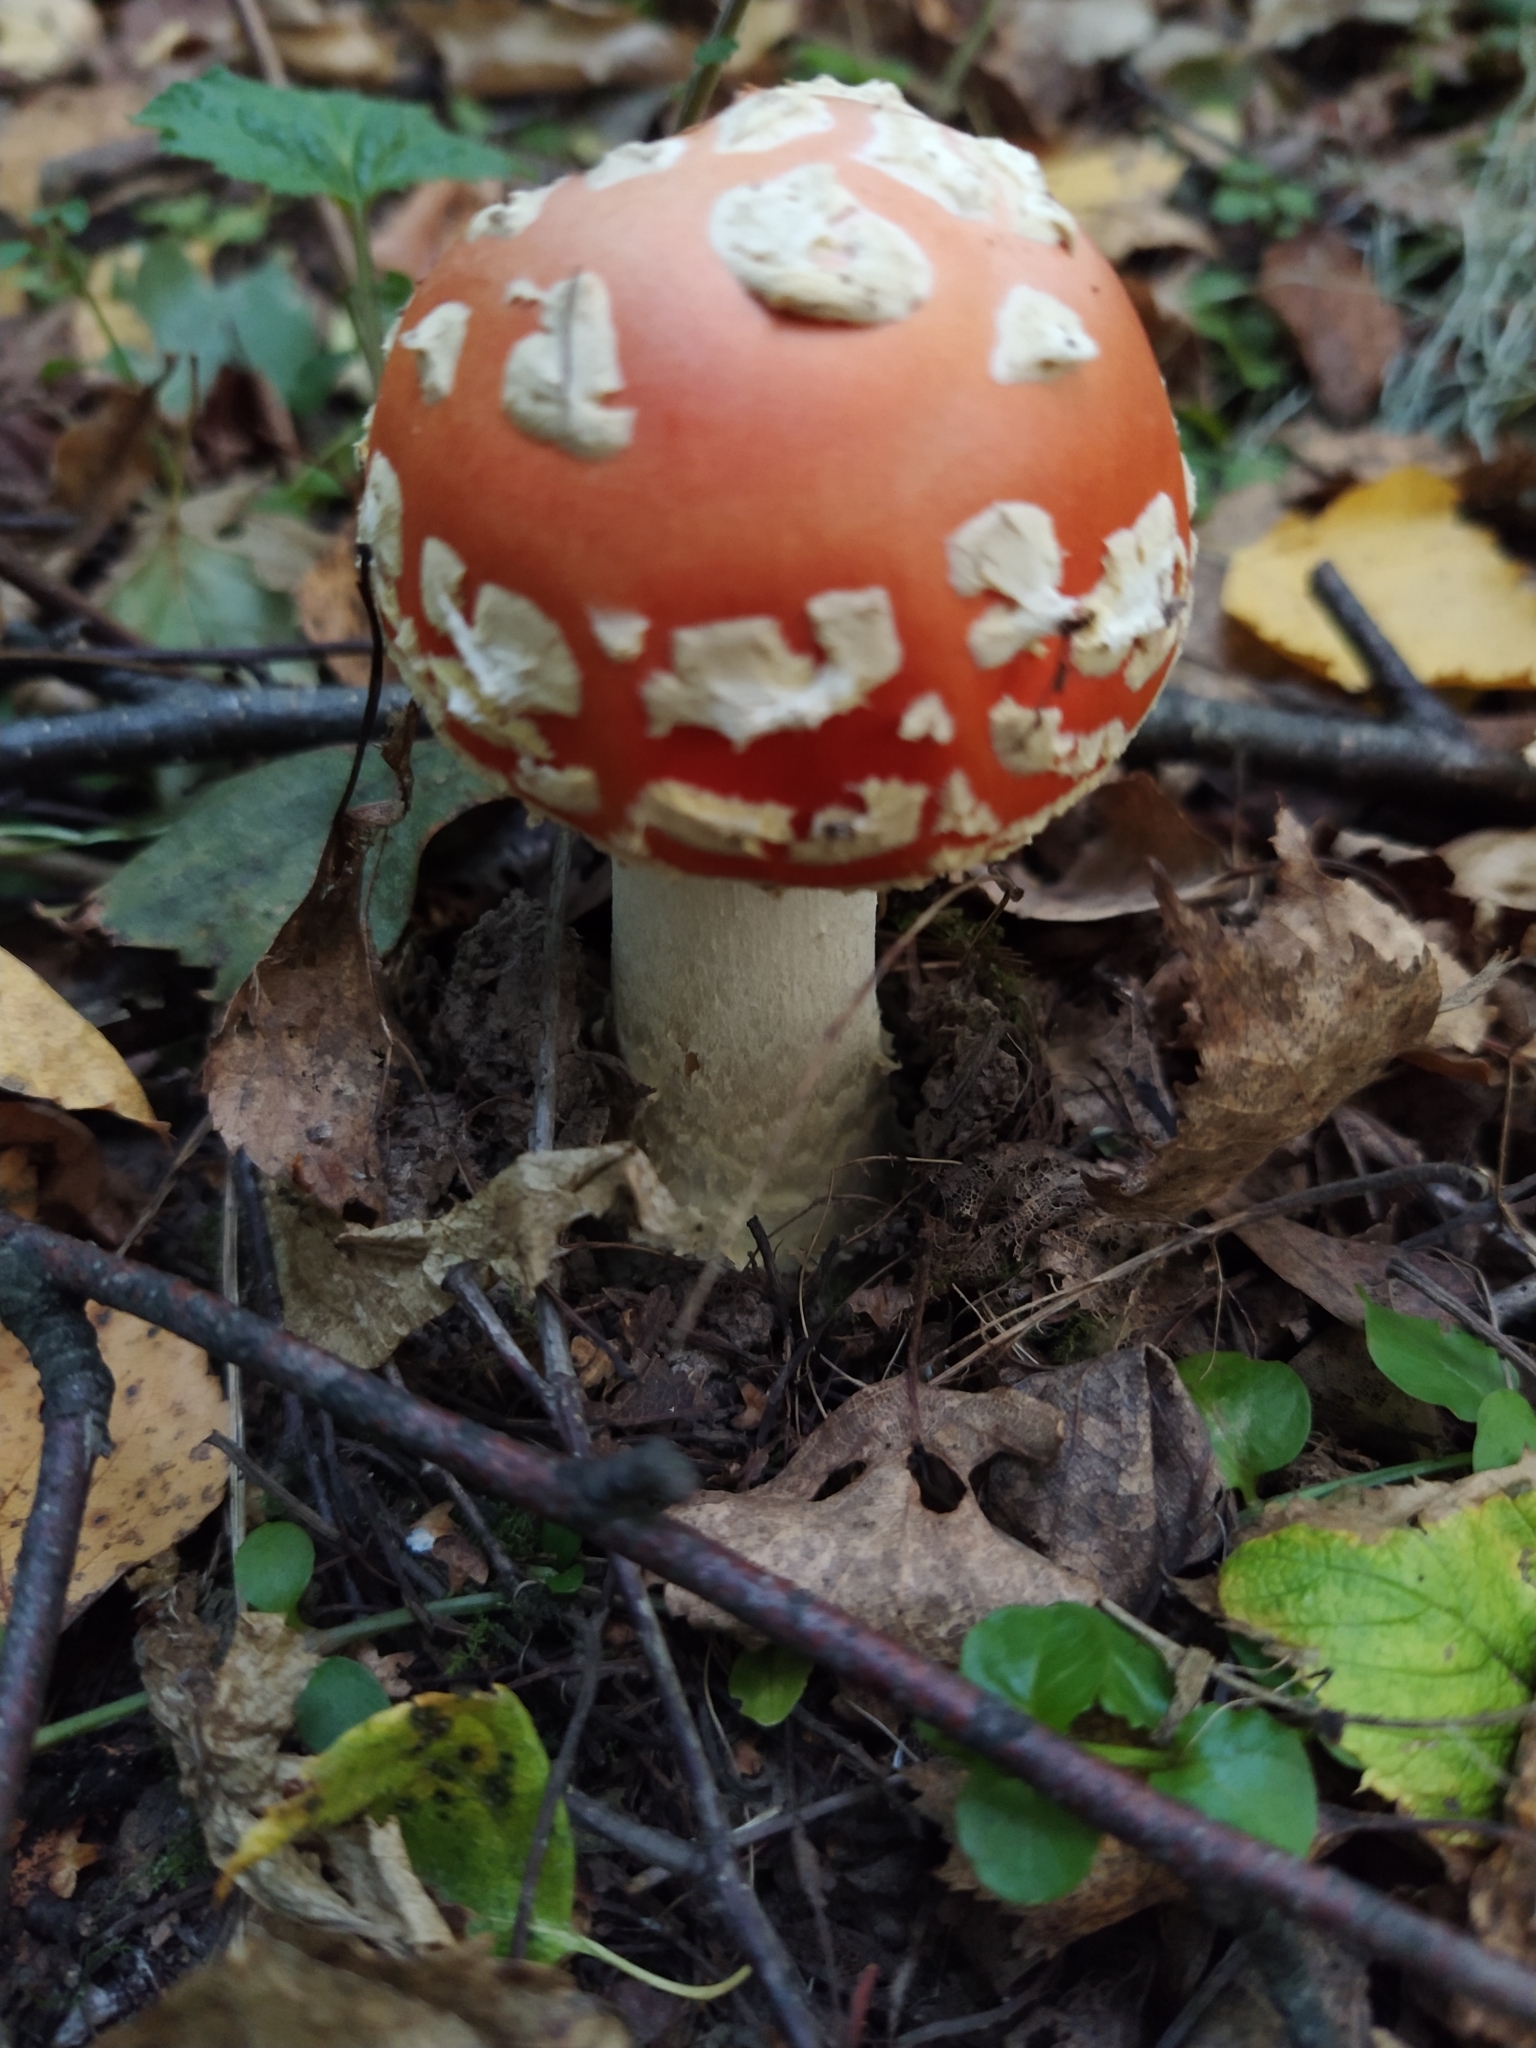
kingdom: Fungi
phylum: Basidiomycota
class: Agaricomycetes
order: Agaricales
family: Amanitaceae
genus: Amanita
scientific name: Amanita muscaria
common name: Fly agaric
